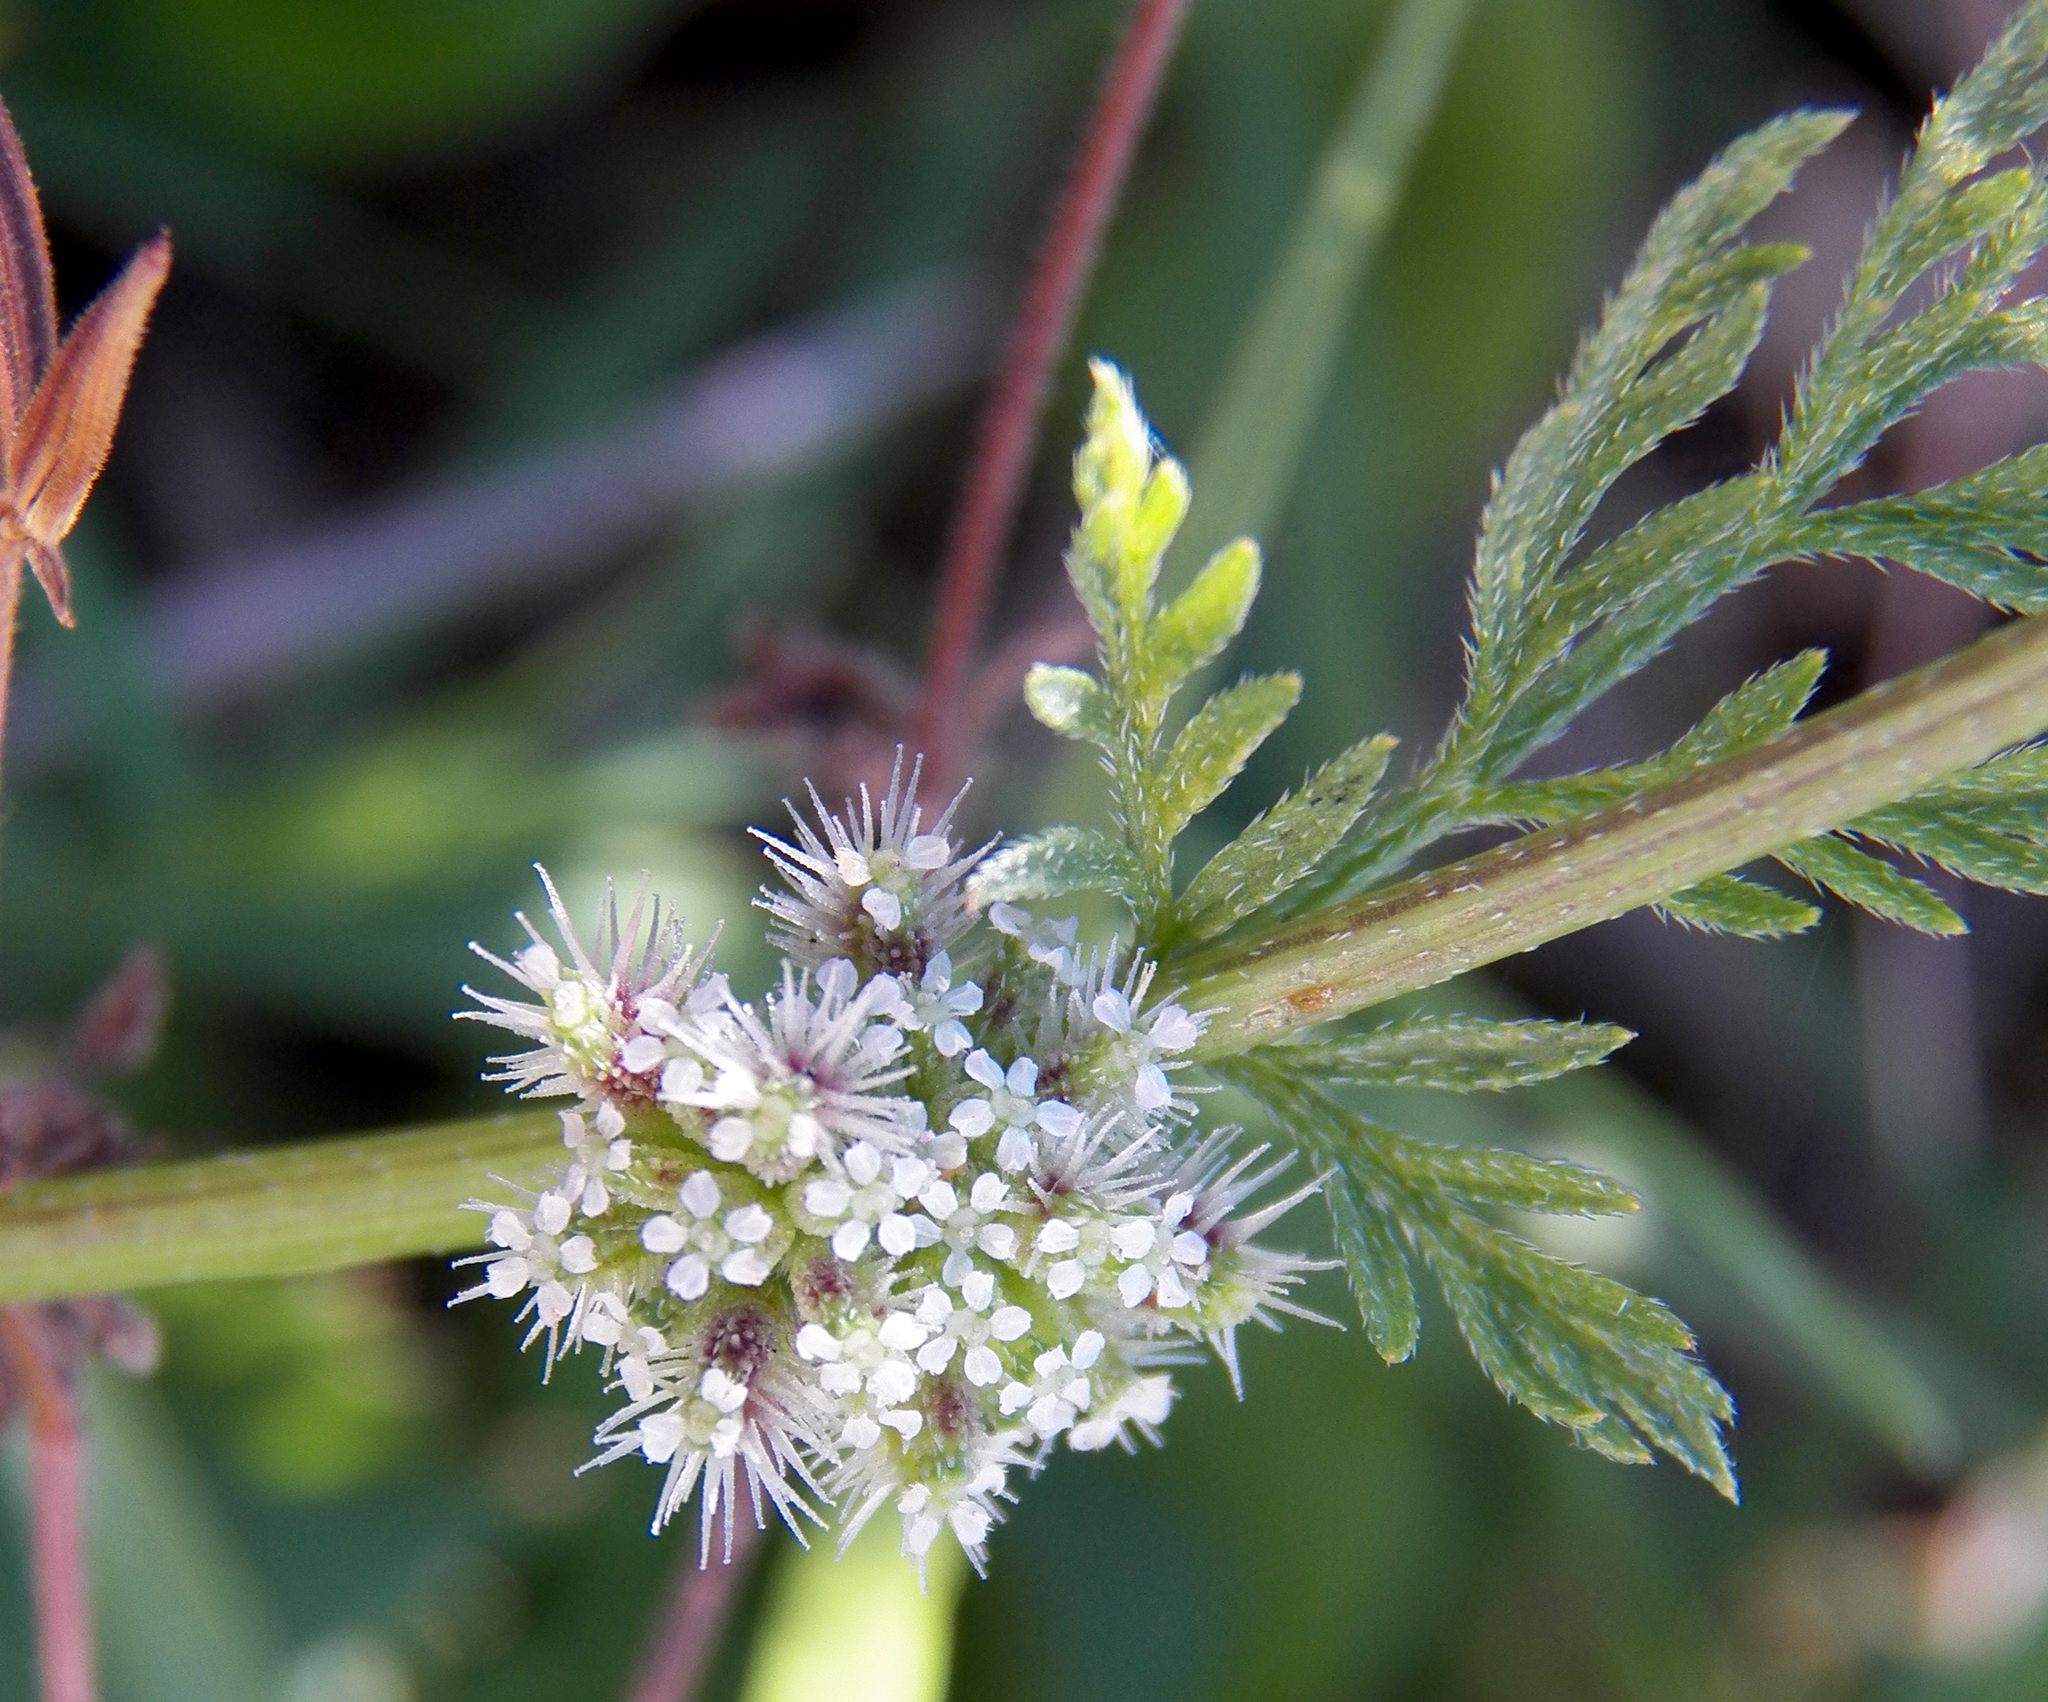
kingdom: Plantae
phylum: Tracheophyta
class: Magnoliopsida
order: Apiales
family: Apiaceae
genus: Torilis
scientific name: Torilis nodosa
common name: Knotted hedge-parsley
